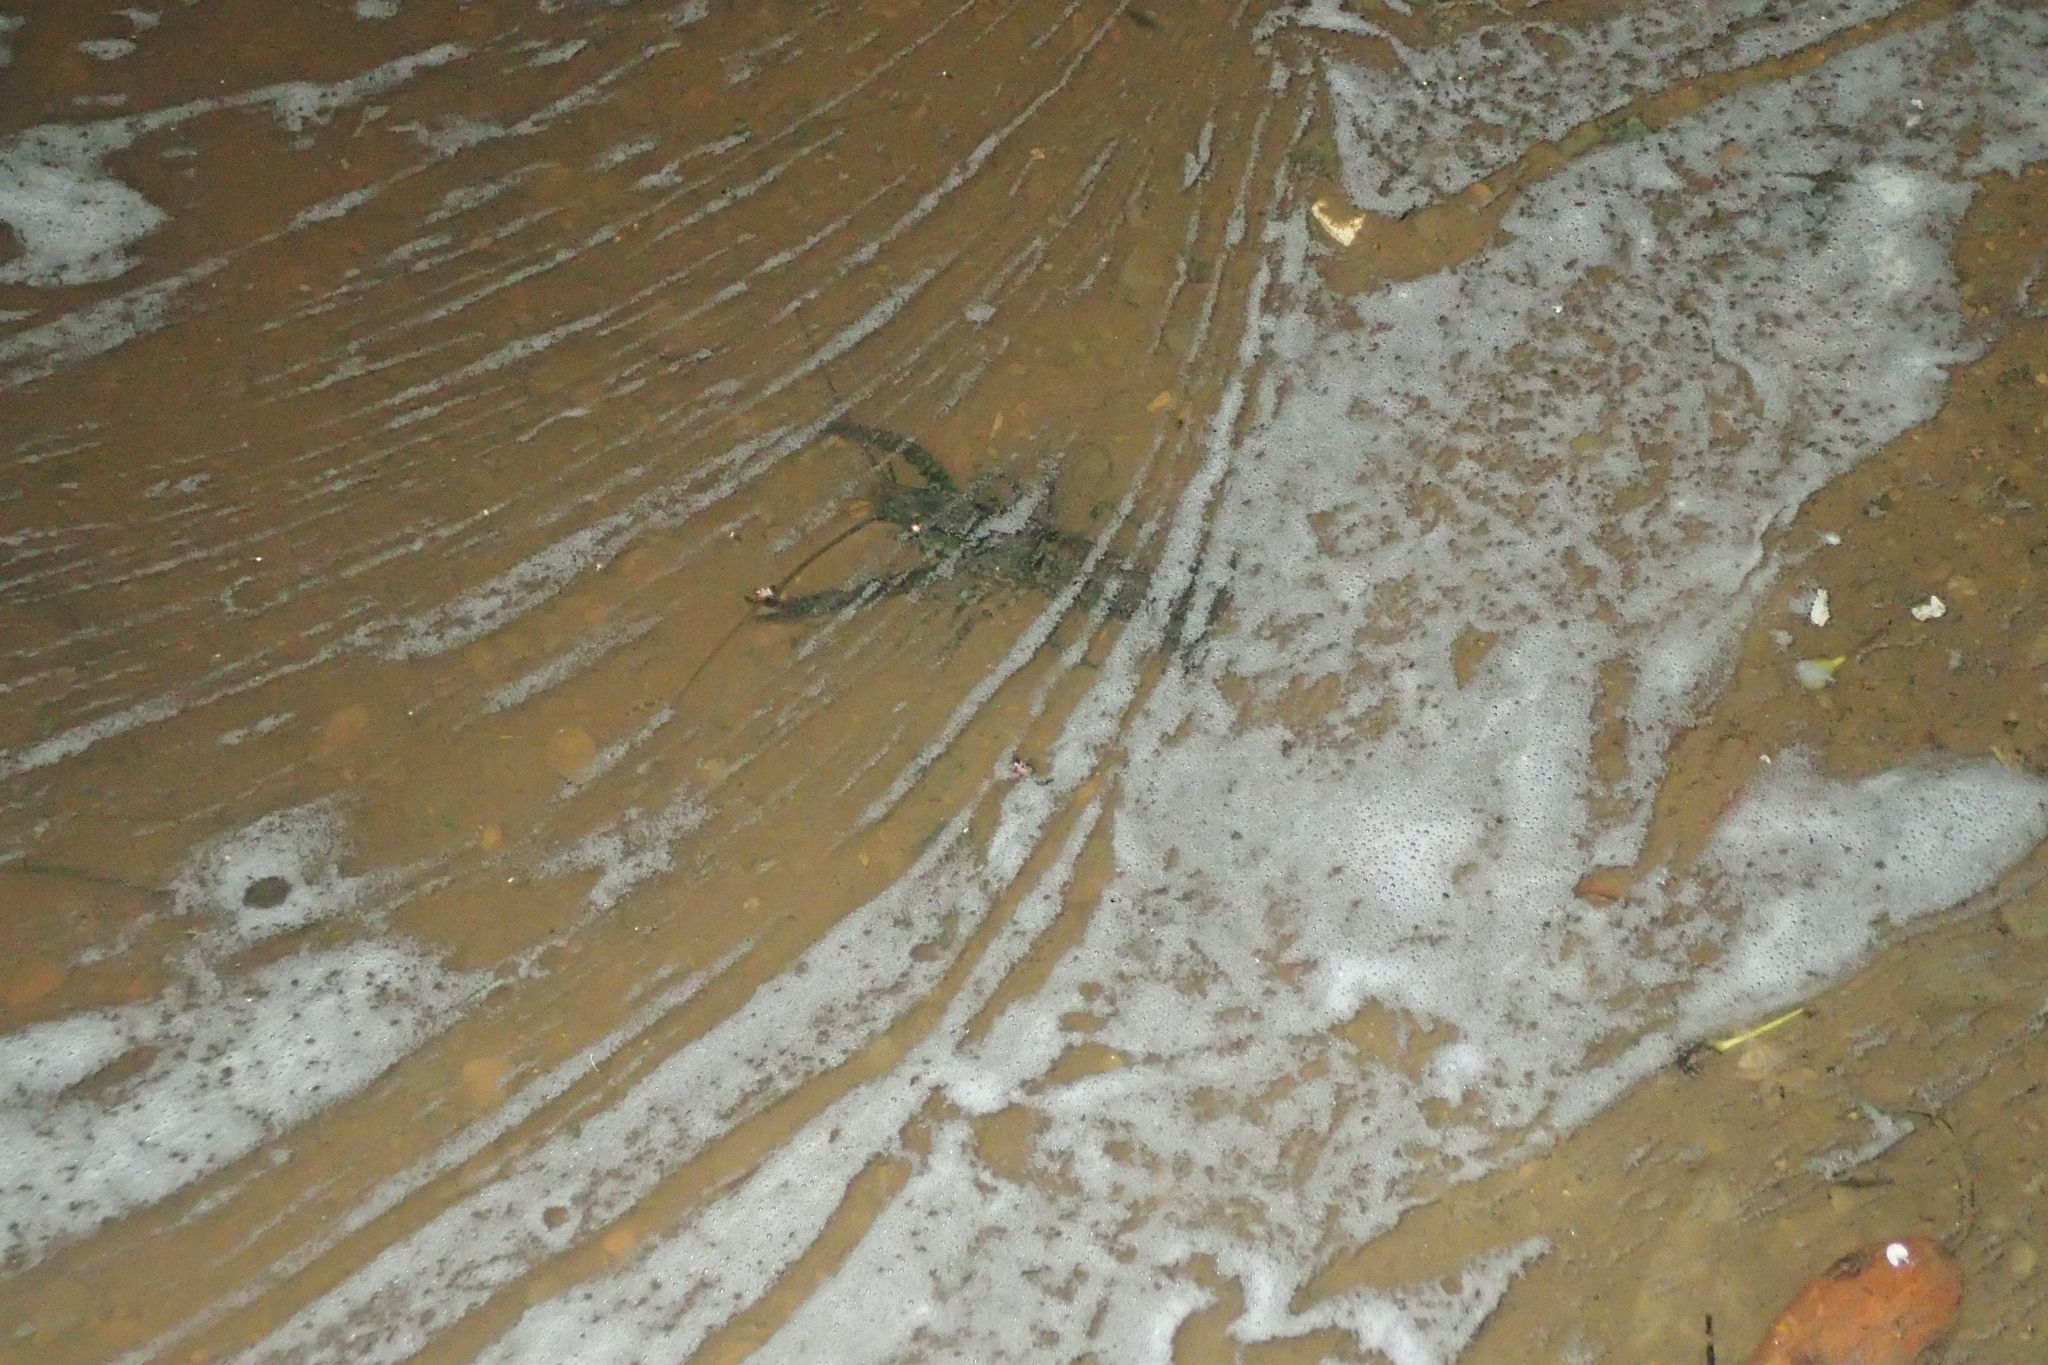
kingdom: Animalia
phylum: Arthropoda
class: Malacostraca
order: Decapoda
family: Parastacidae
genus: Paranephrops
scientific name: Paranephrops planifrons
